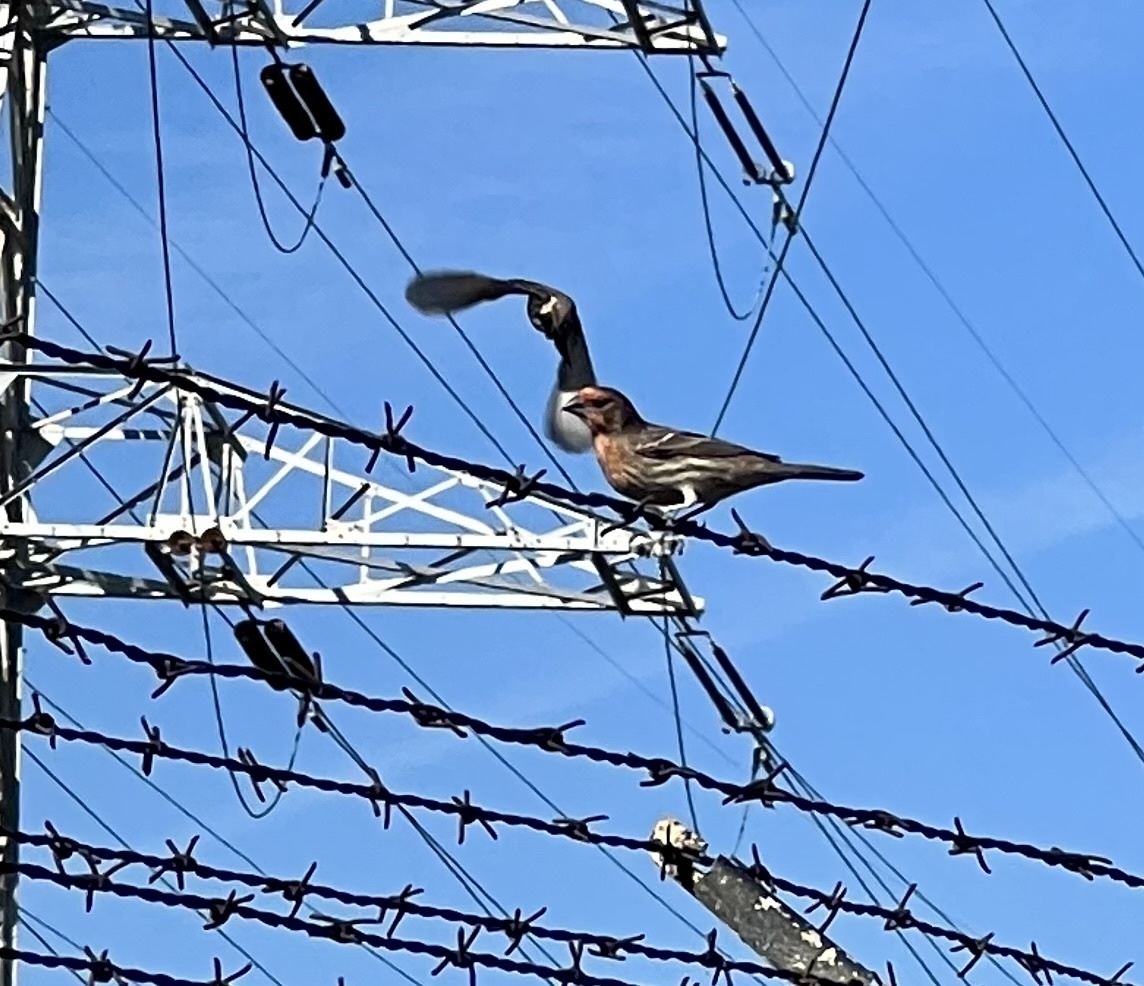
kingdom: Animalia
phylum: Chordata
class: Aves
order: Passeriformes
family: Fringillidae
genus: Haemorhous
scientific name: Haemorhous mexicanus
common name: House finch
